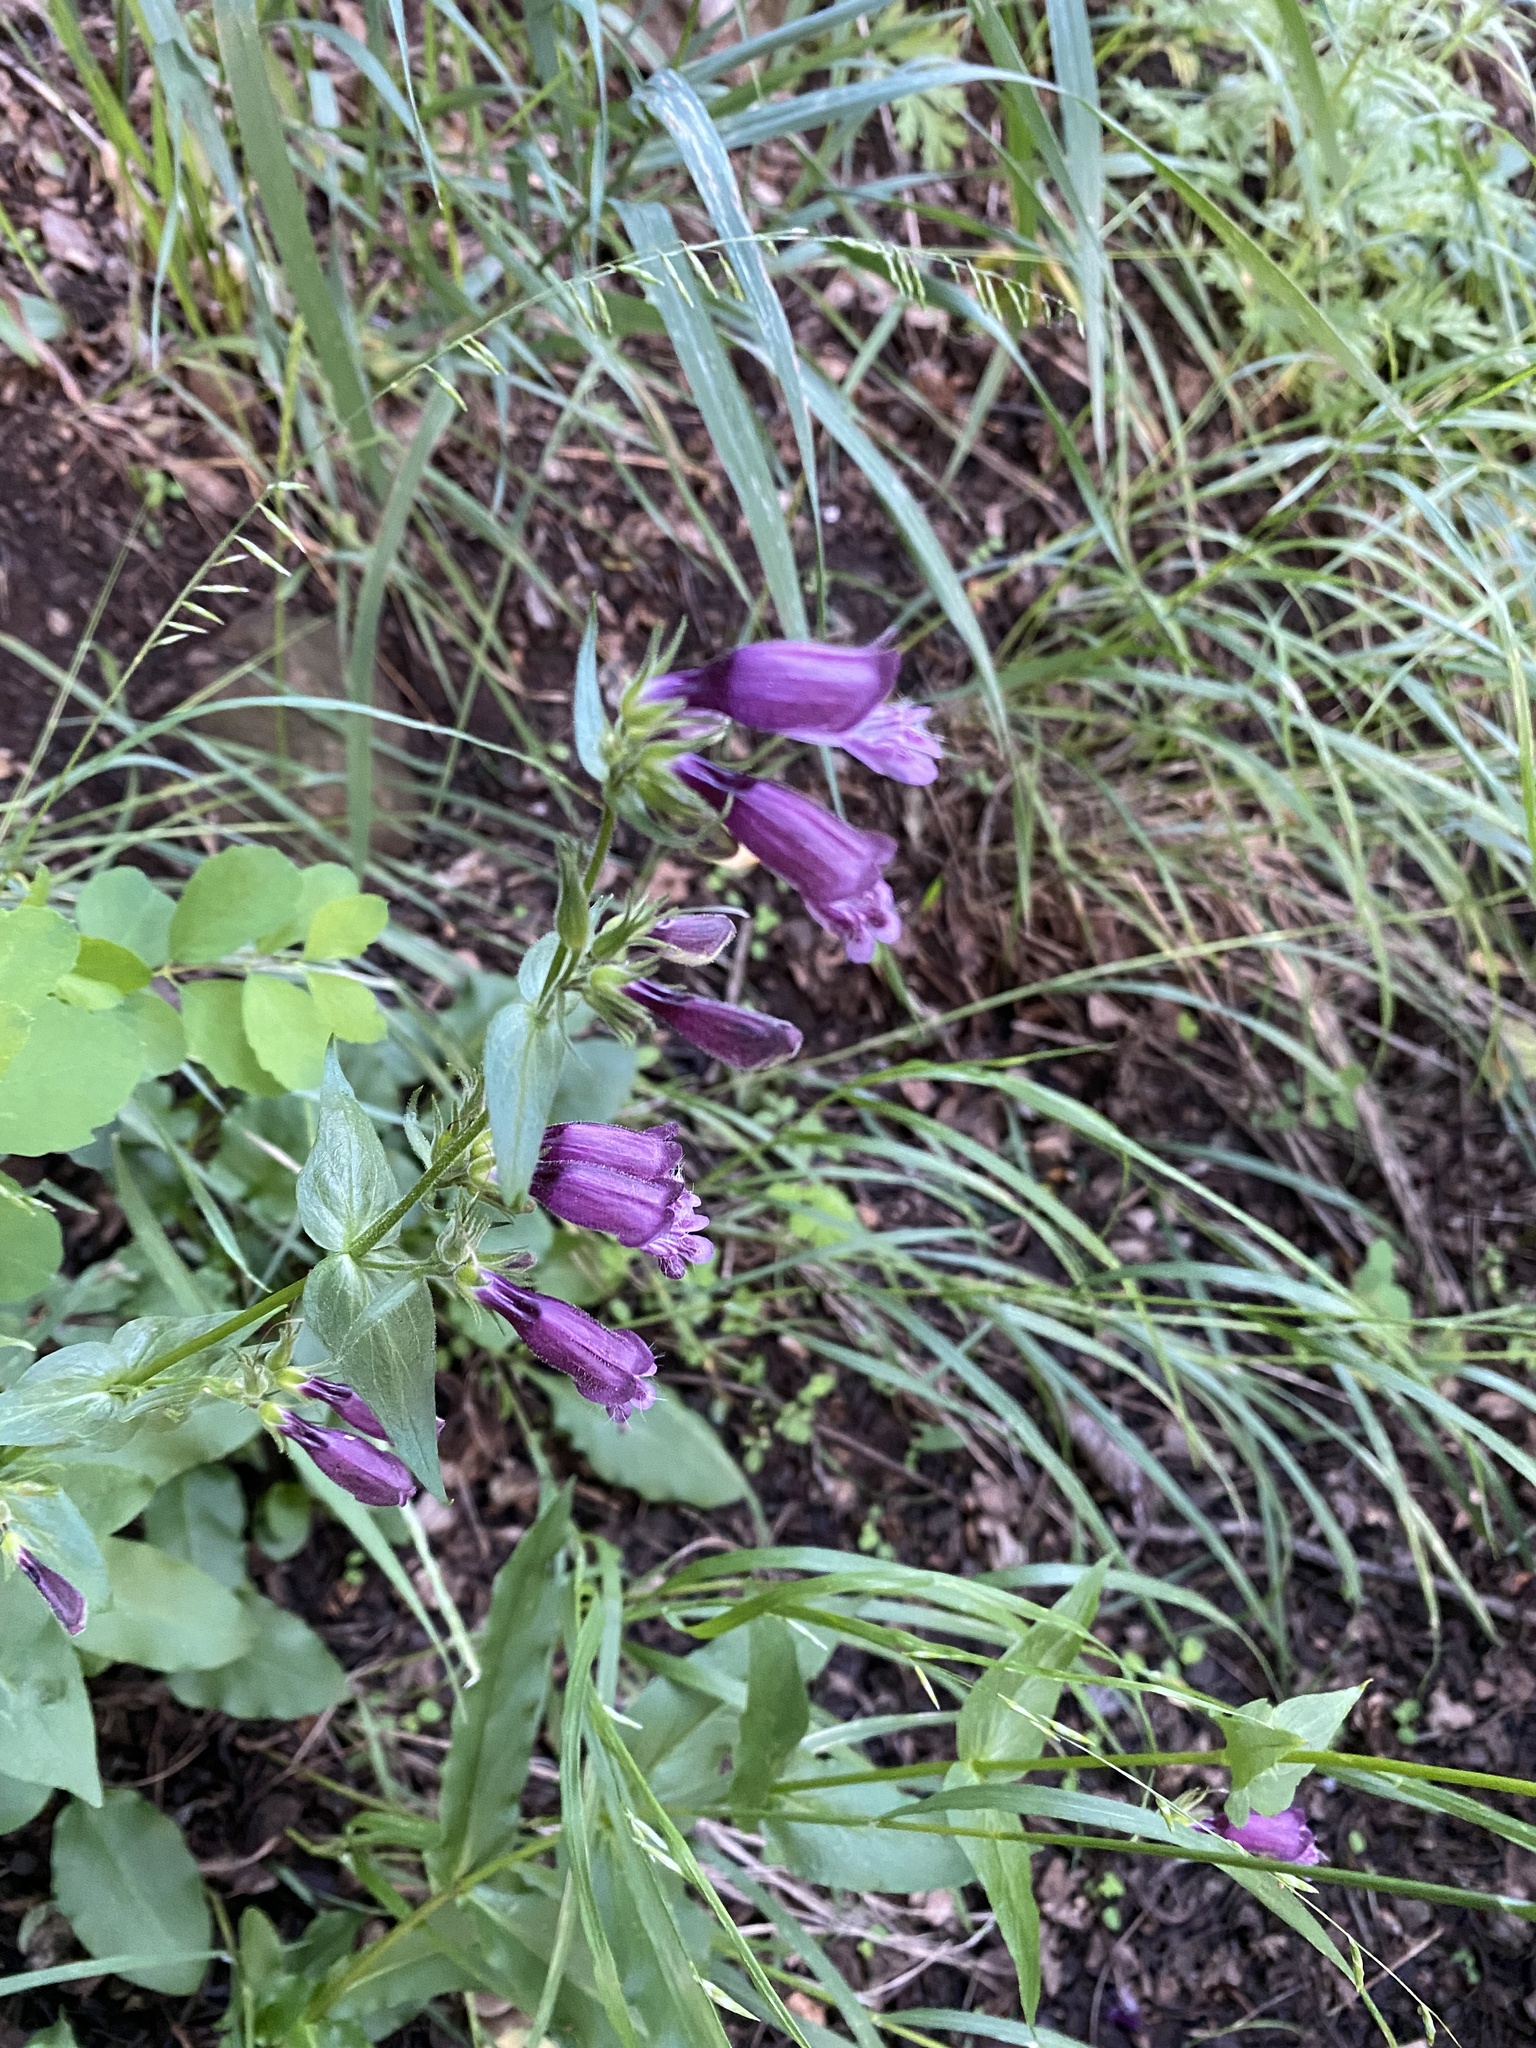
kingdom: Plantae
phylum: Tracheophyta
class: Magnoliopsida
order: Lamiales
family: Plantaginaceae
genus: Penstemon
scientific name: Penstemon whippleanus
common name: Whipple's penstemon
